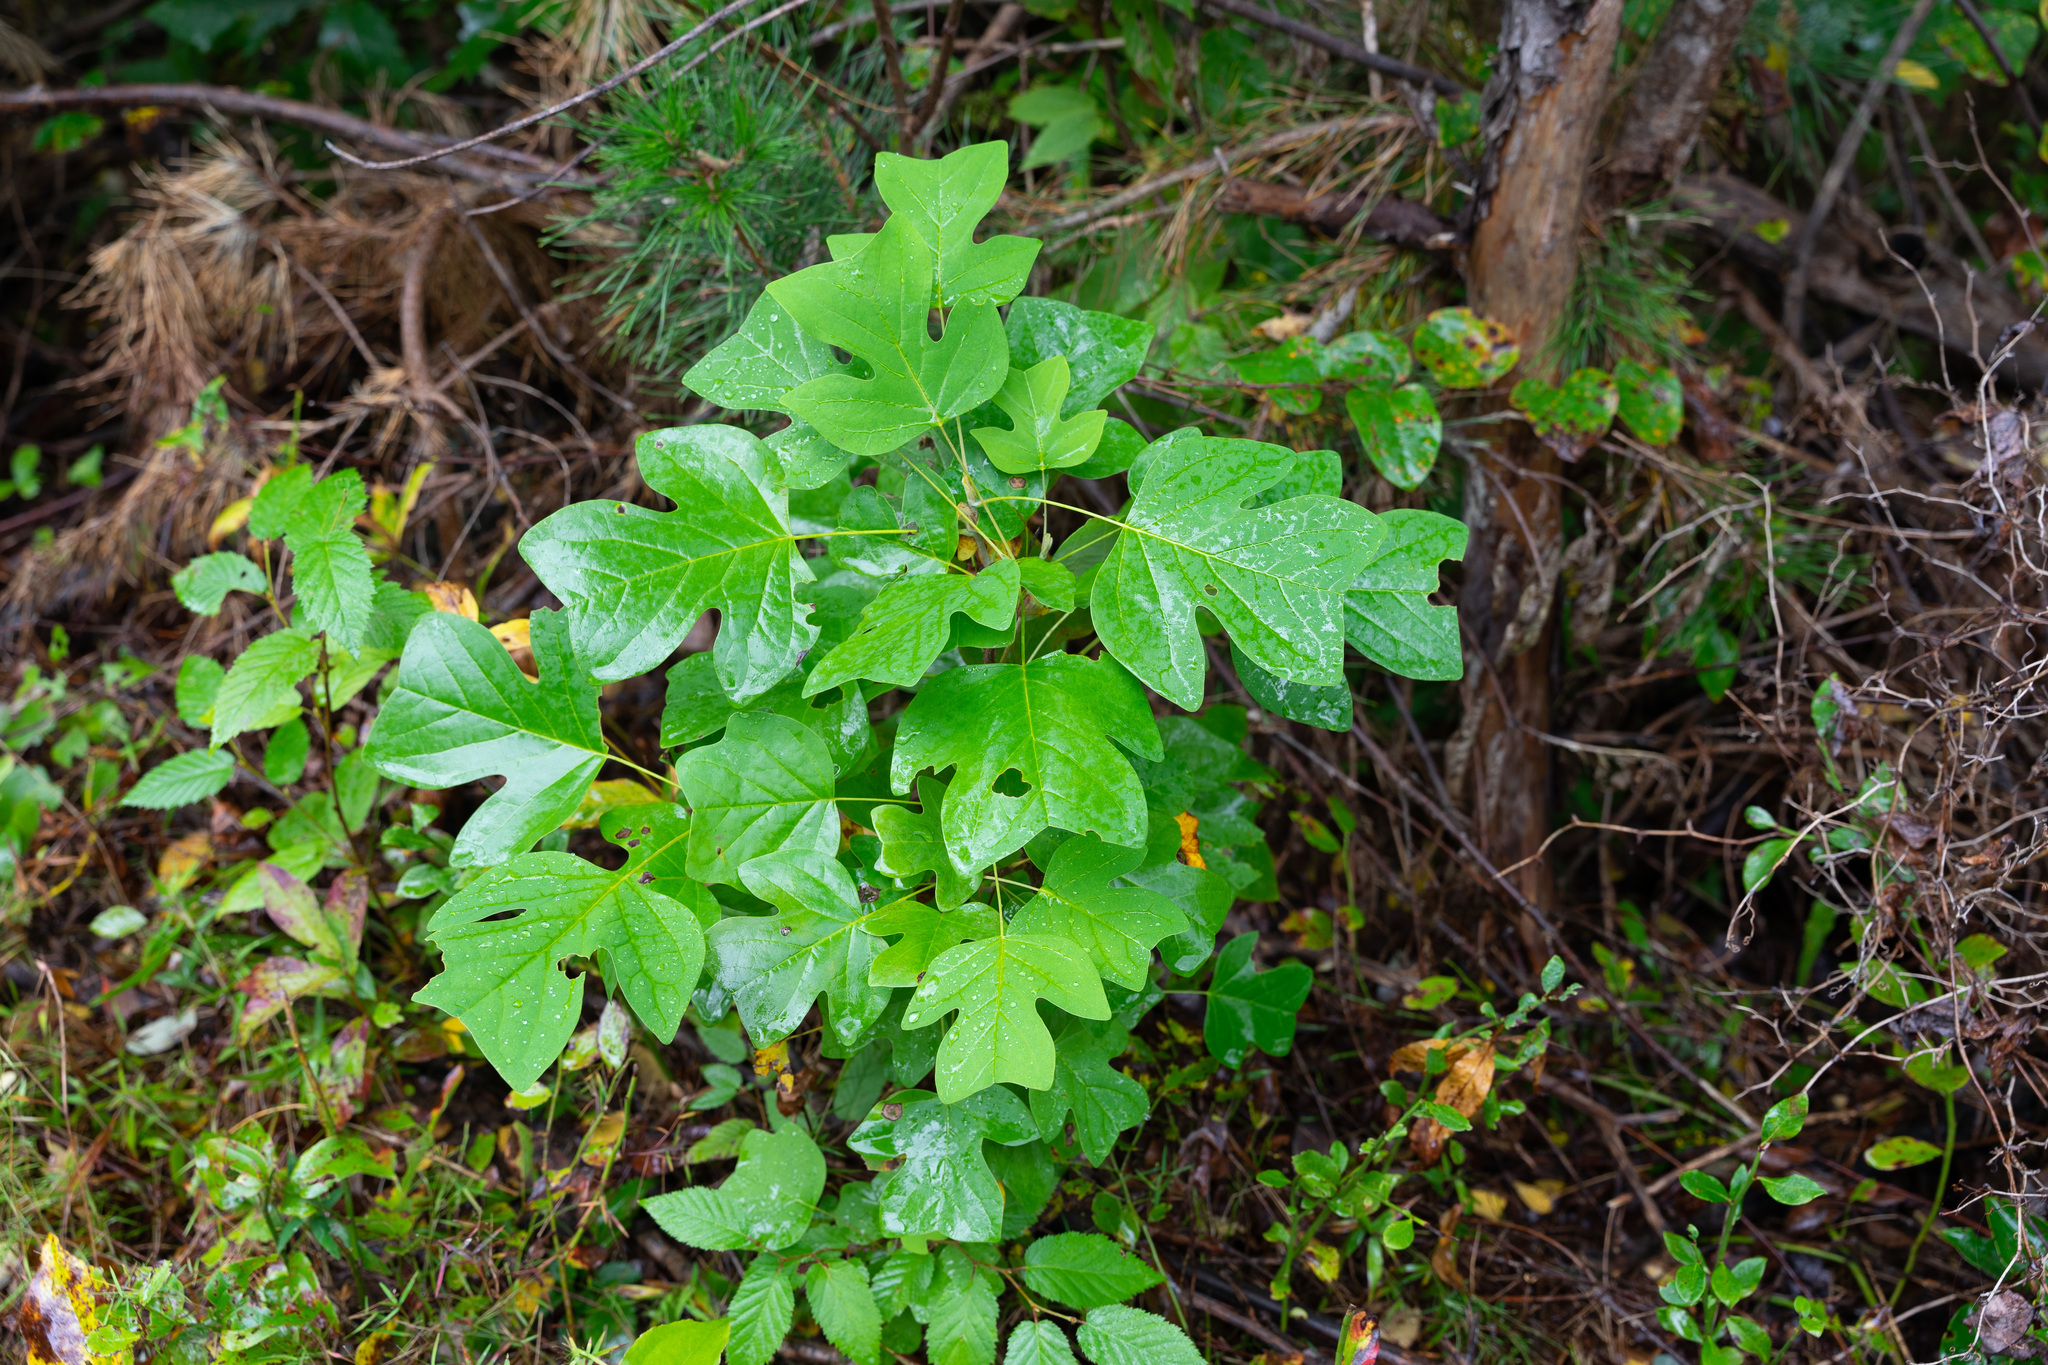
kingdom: Plantae
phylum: Tracheophyta
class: Magnoliopsida
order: Magnoliales
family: Magnoliaceae
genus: Liriodendron
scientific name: Liriodendron tulipifera
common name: Tulip tree
